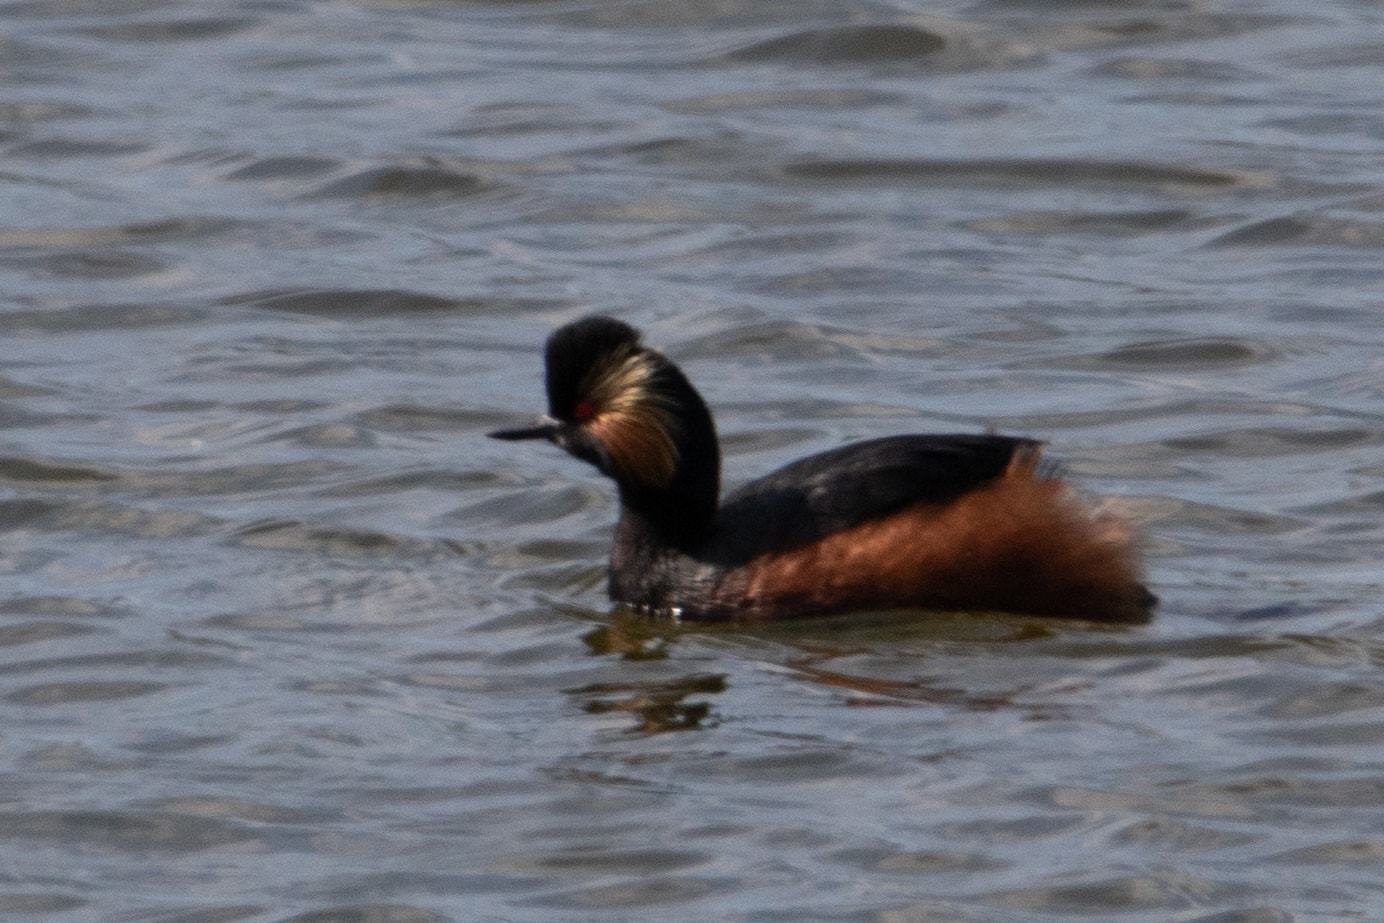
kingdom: Animalia
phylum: Chordata
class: Aves
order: Podicipediformes
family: Podicipedidae
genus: Podiceps
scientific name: Podiceps nigricollis
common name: Black-necked grebe
